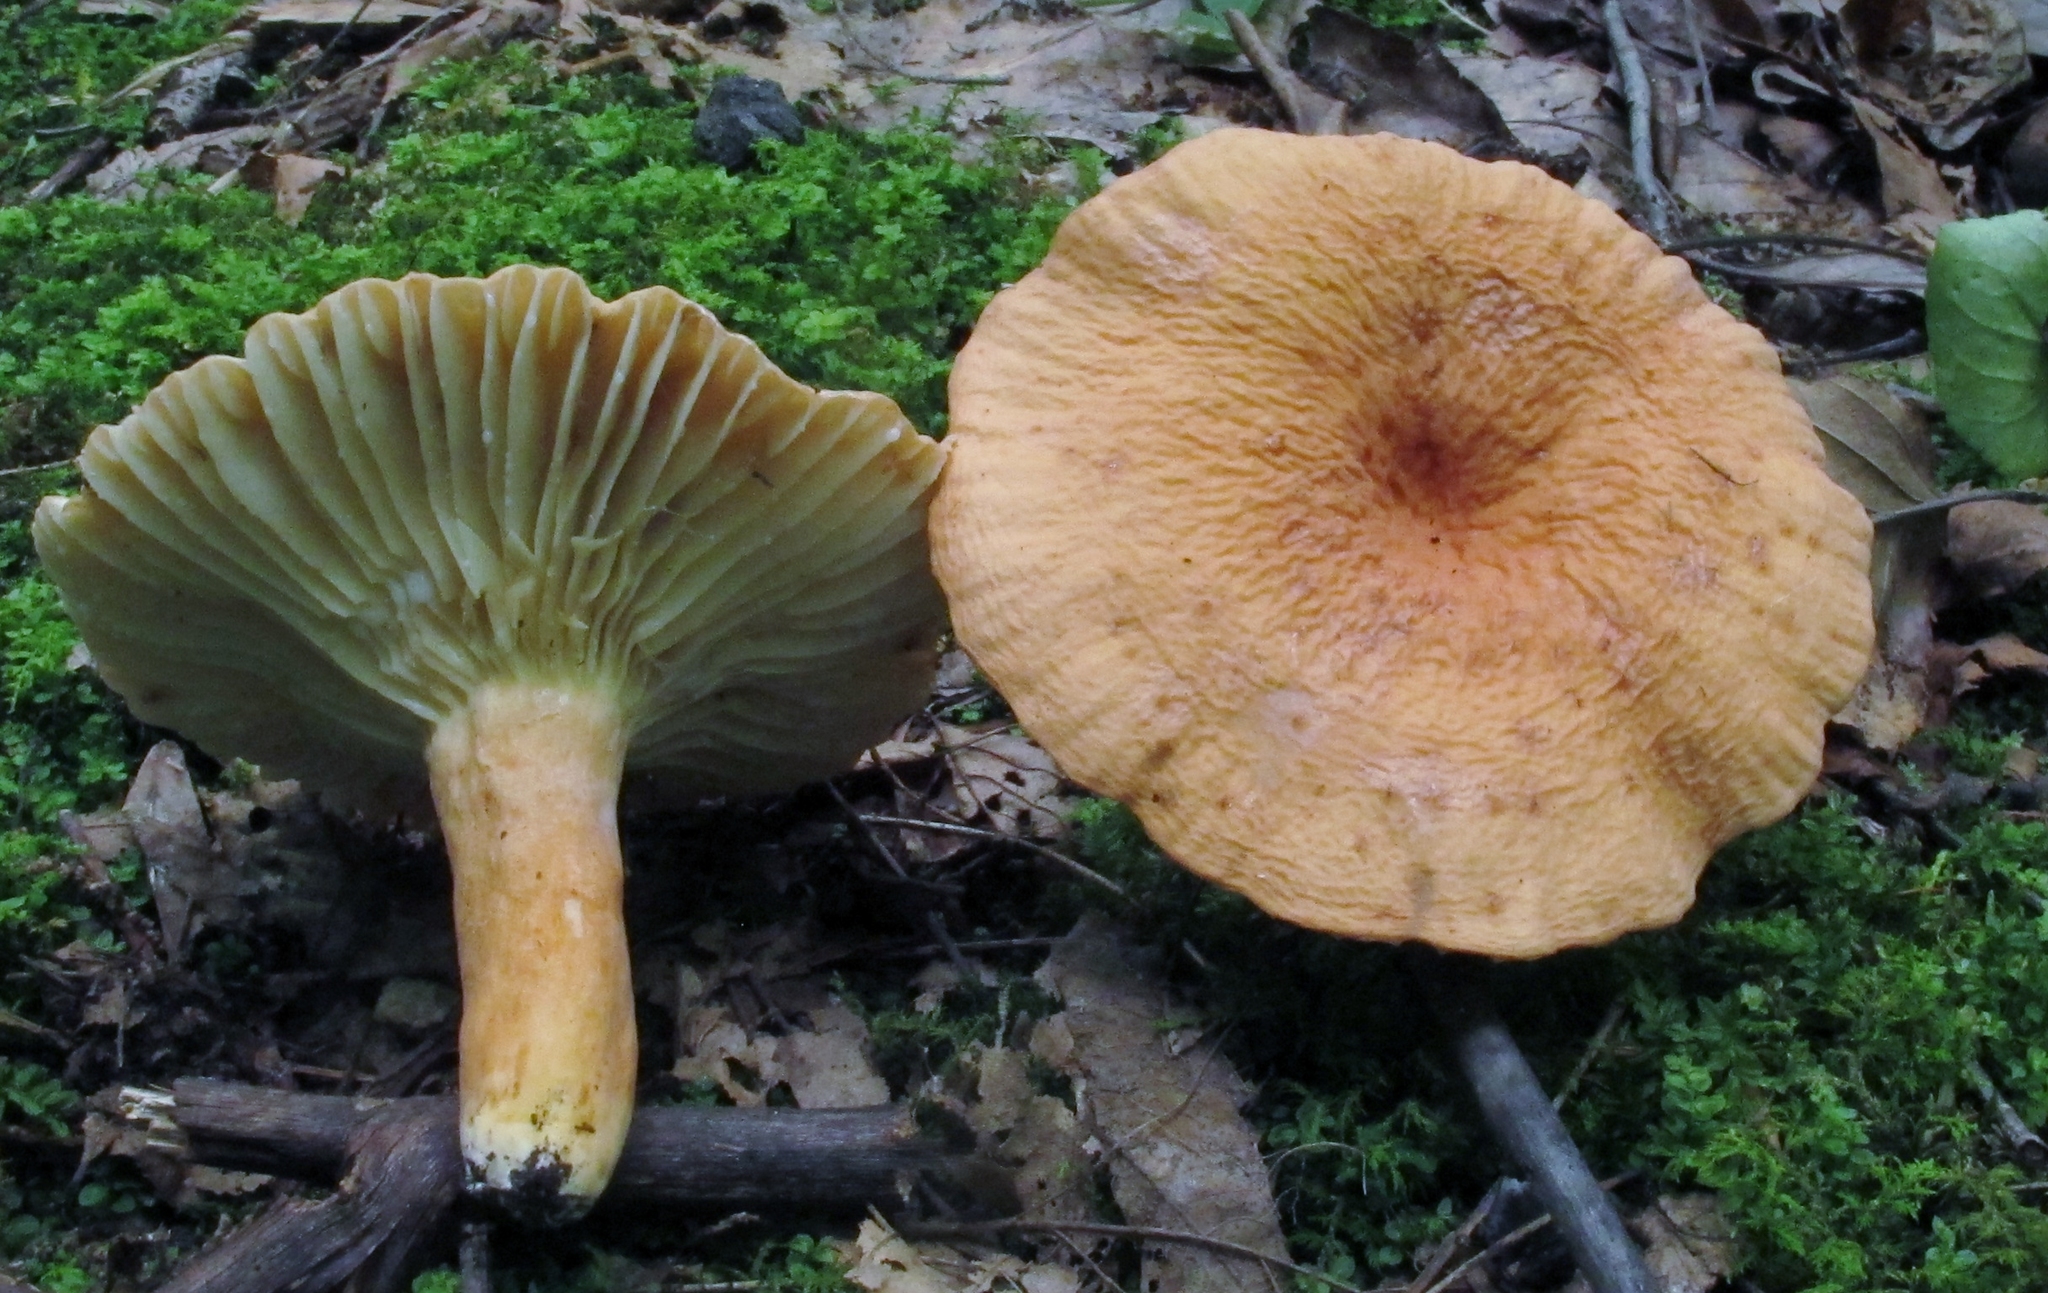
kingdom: Fungi
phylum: Basidiomycota
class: Agaricomycetes
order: Russulales
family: Russulaceae
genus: Lactarius
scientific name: Lactarius hygrophoroides
